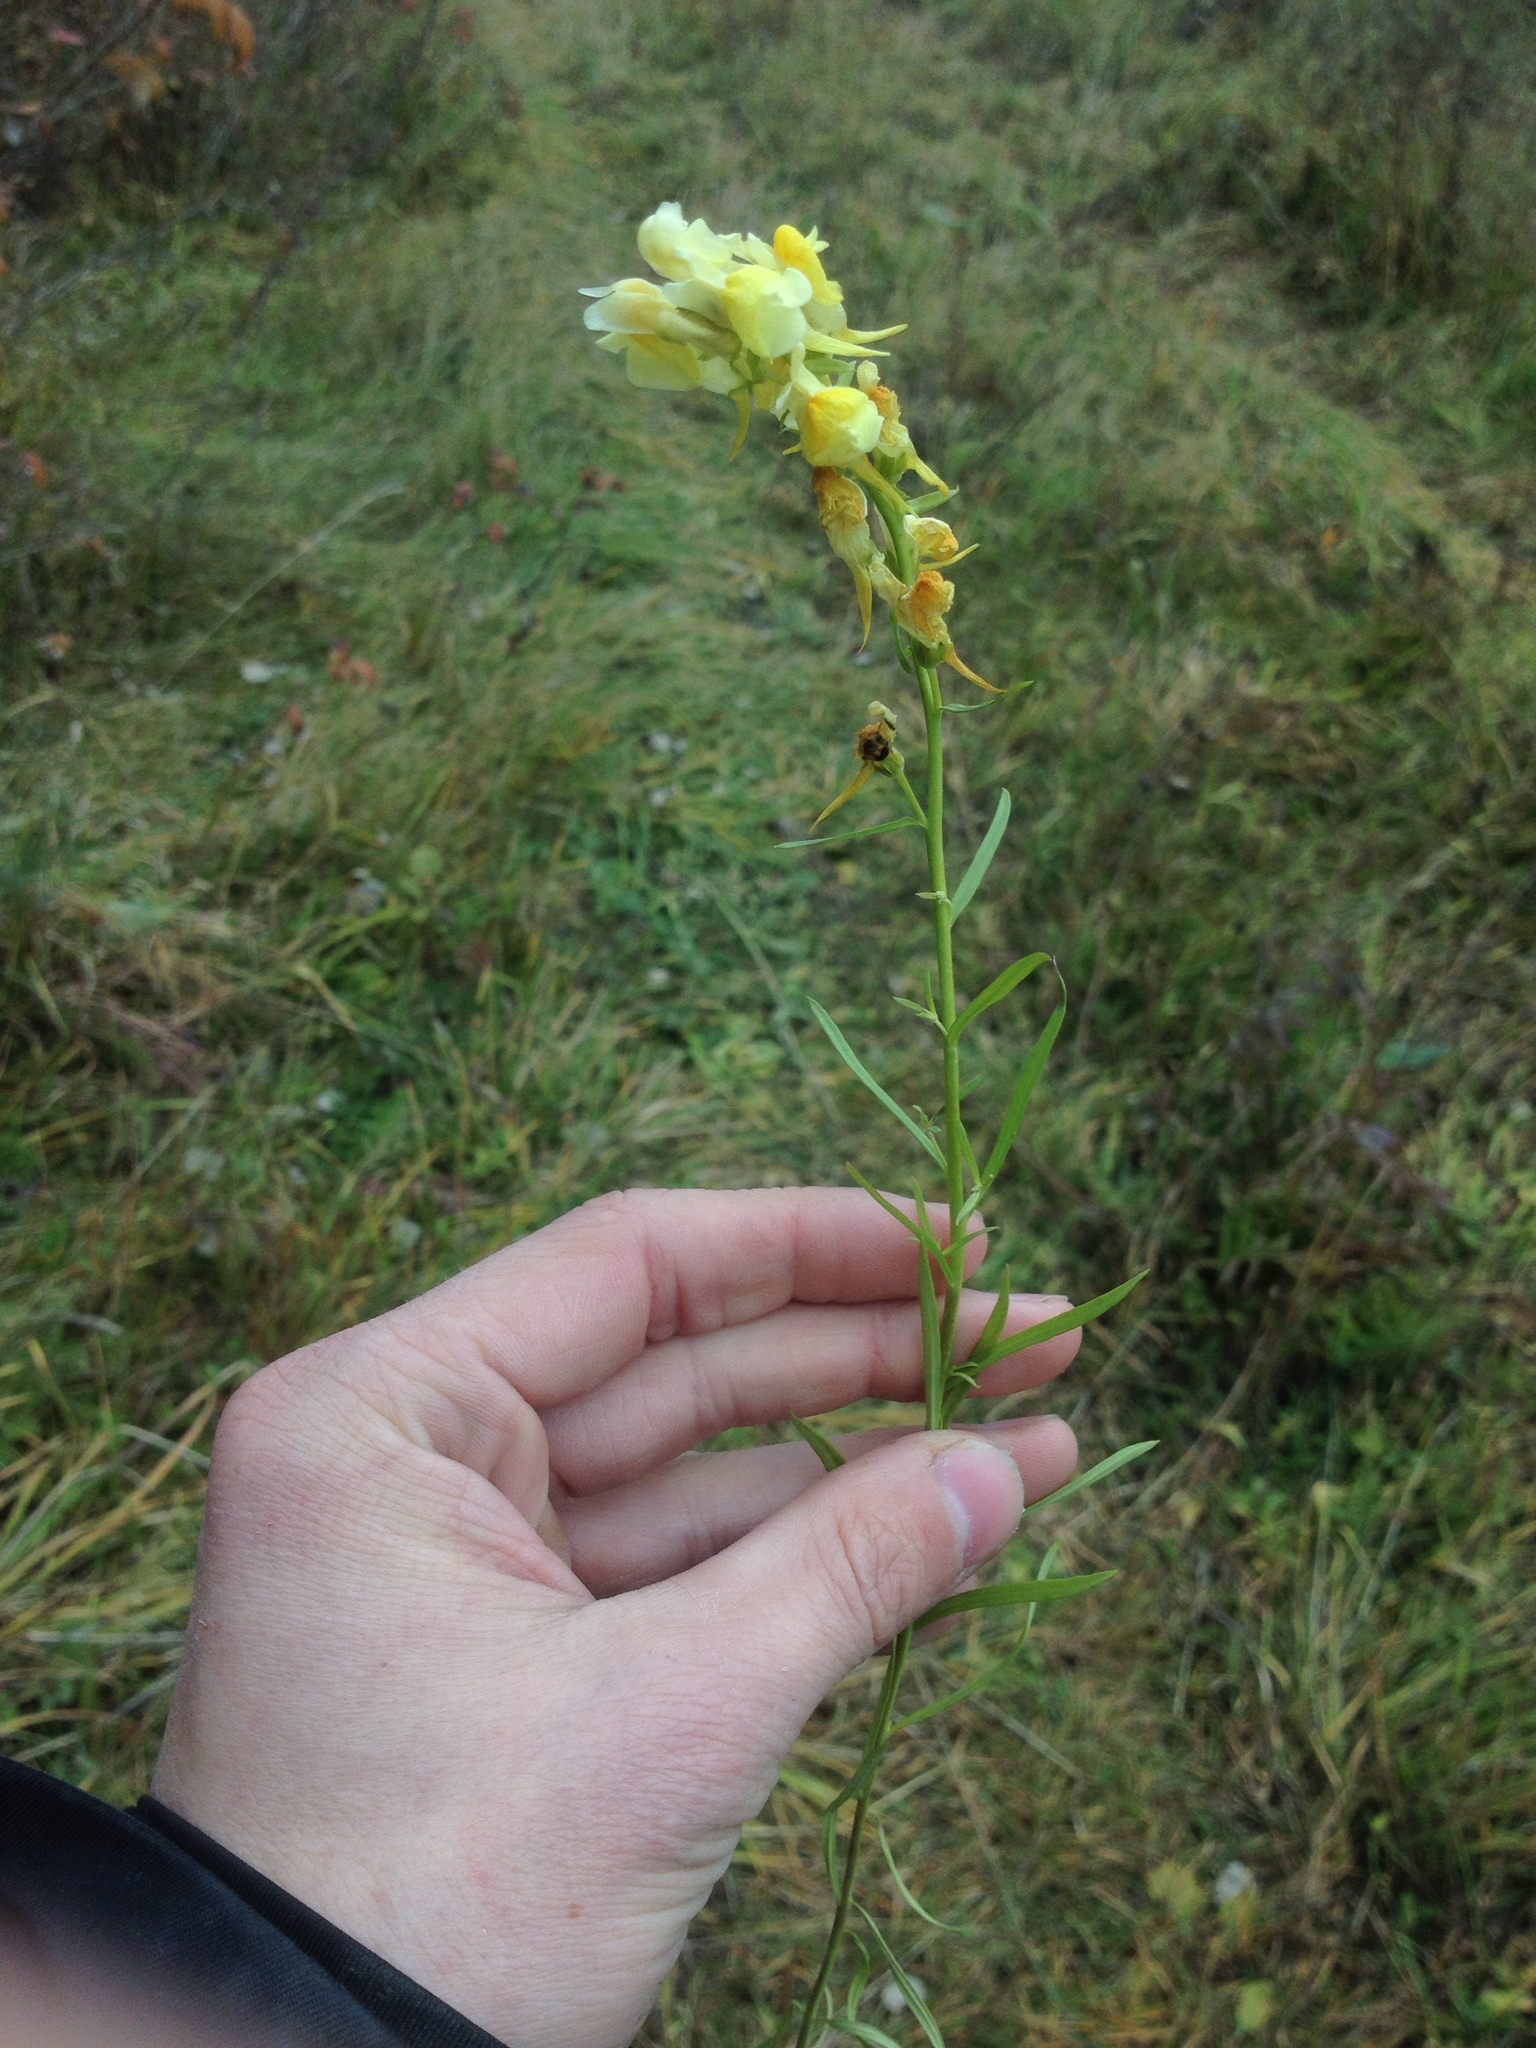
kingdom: Plantae
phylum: Tracheophyta
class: Magnoliopsida
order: Lamiales
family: Plantaginaceae
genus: Linaria
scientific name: Linaria vulgaris
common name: Butter and eggs
